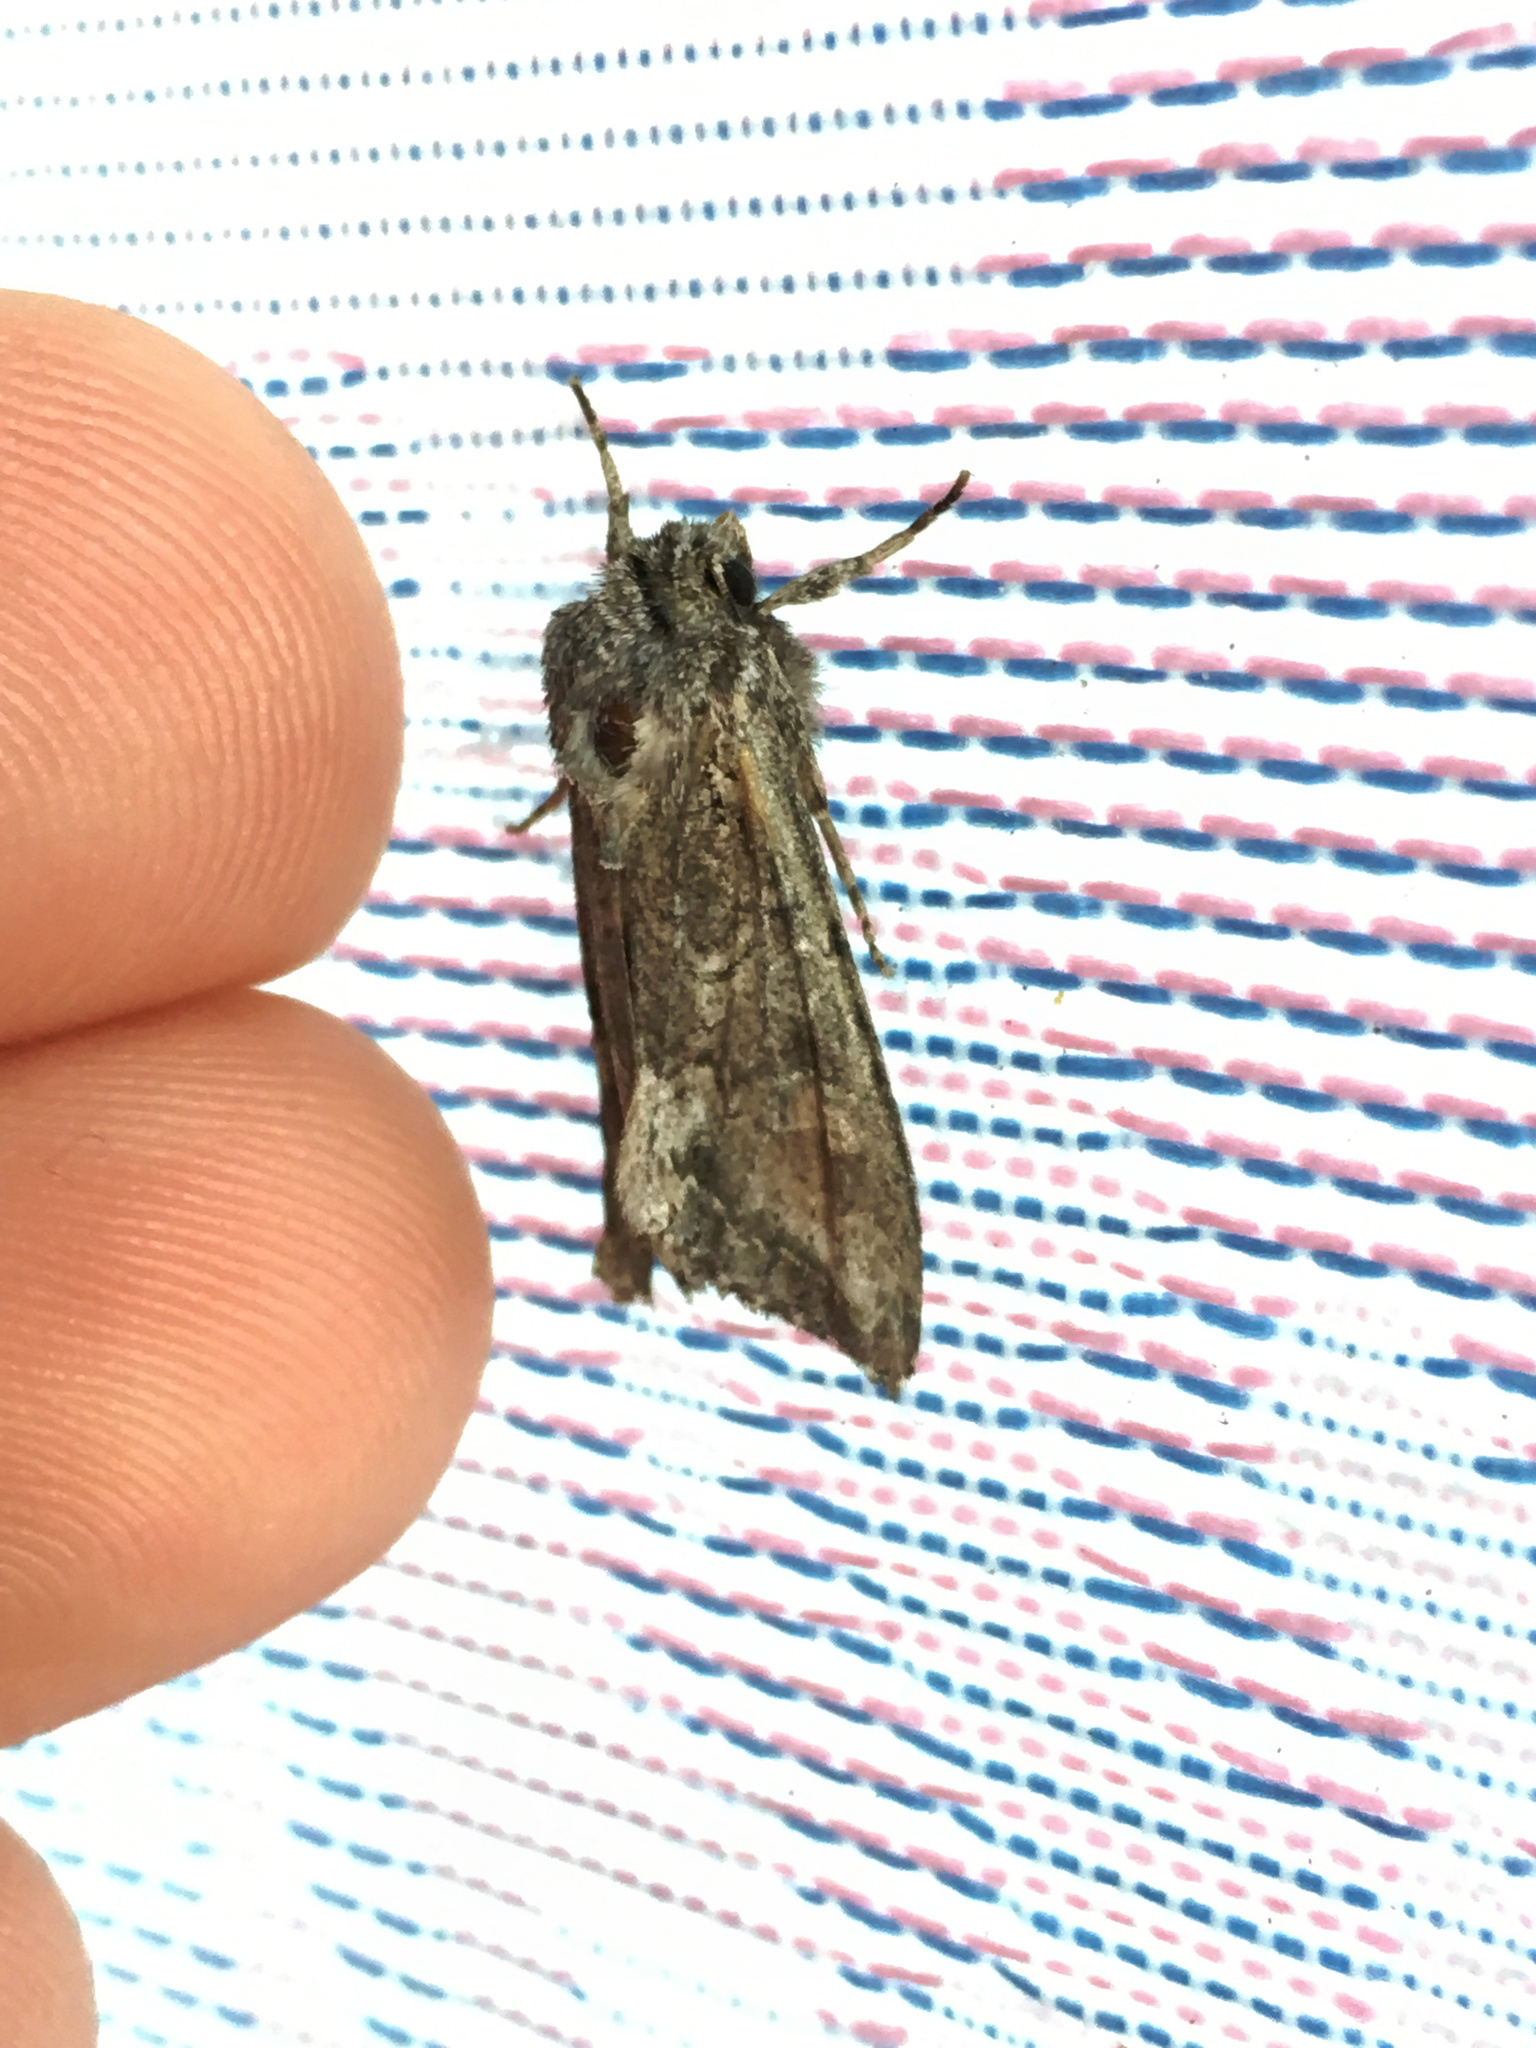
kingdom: Animalia
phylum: Arthropoda
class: Insecta
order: Lepidoptera
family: Noctuidae
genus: Ichneutica
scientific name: Ichneutica mutans
